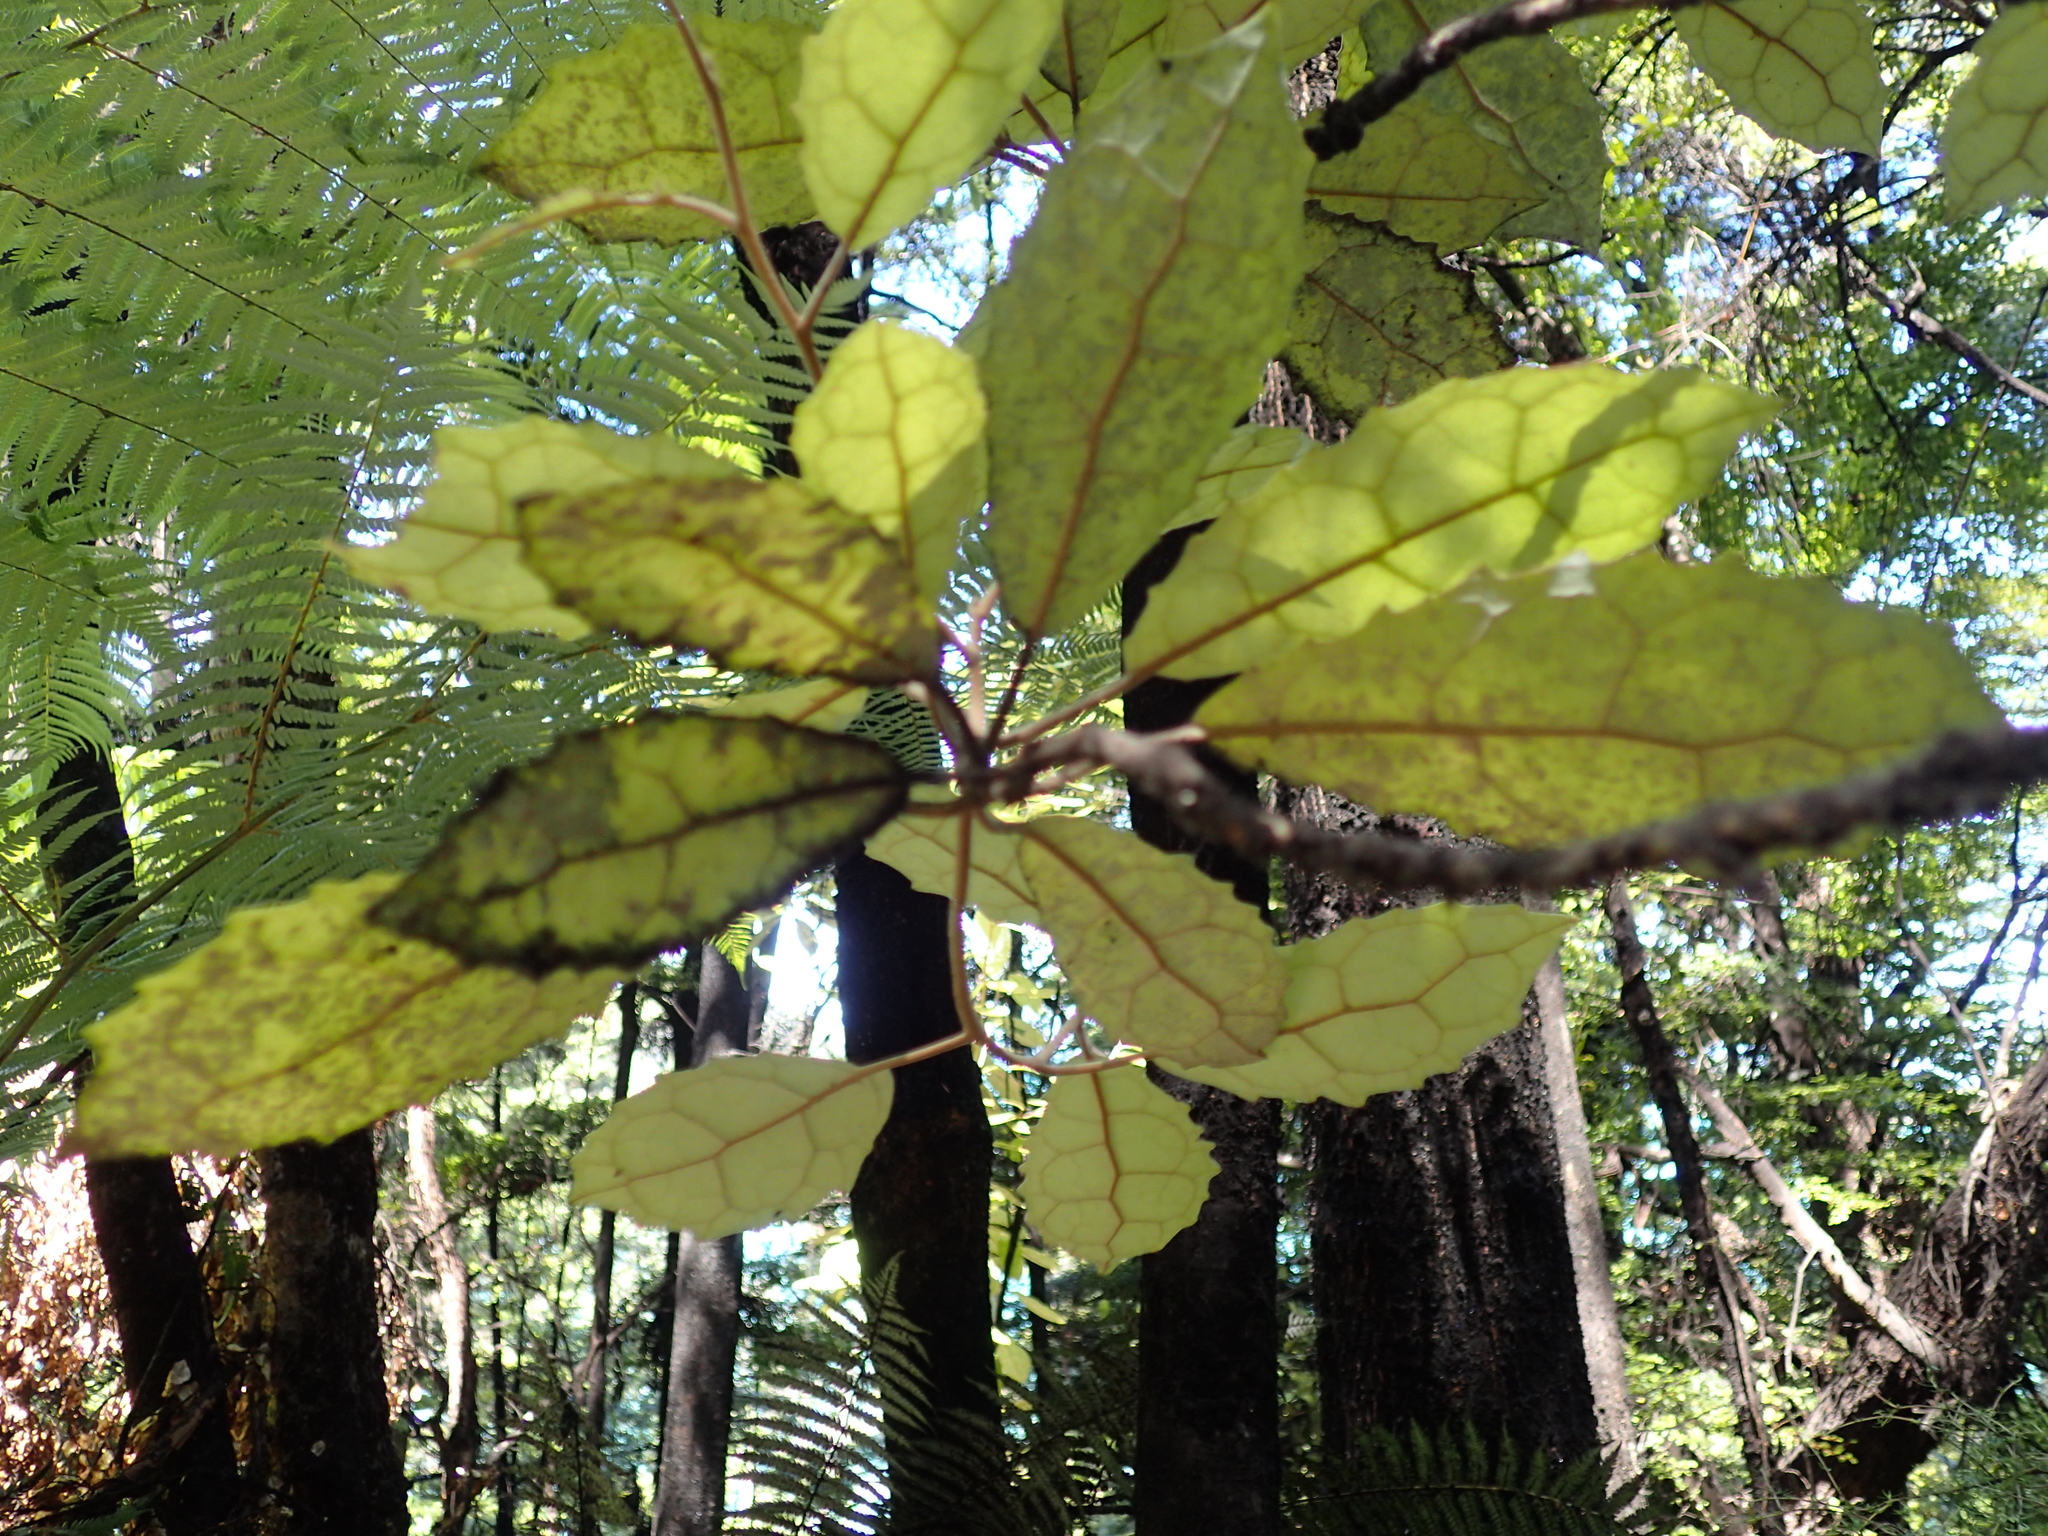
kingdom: Plantae
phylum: Tracheophyta
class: Magnoliopsida
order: Asterales
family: Asteraceae
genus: Olearia
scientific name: Olearia rani
